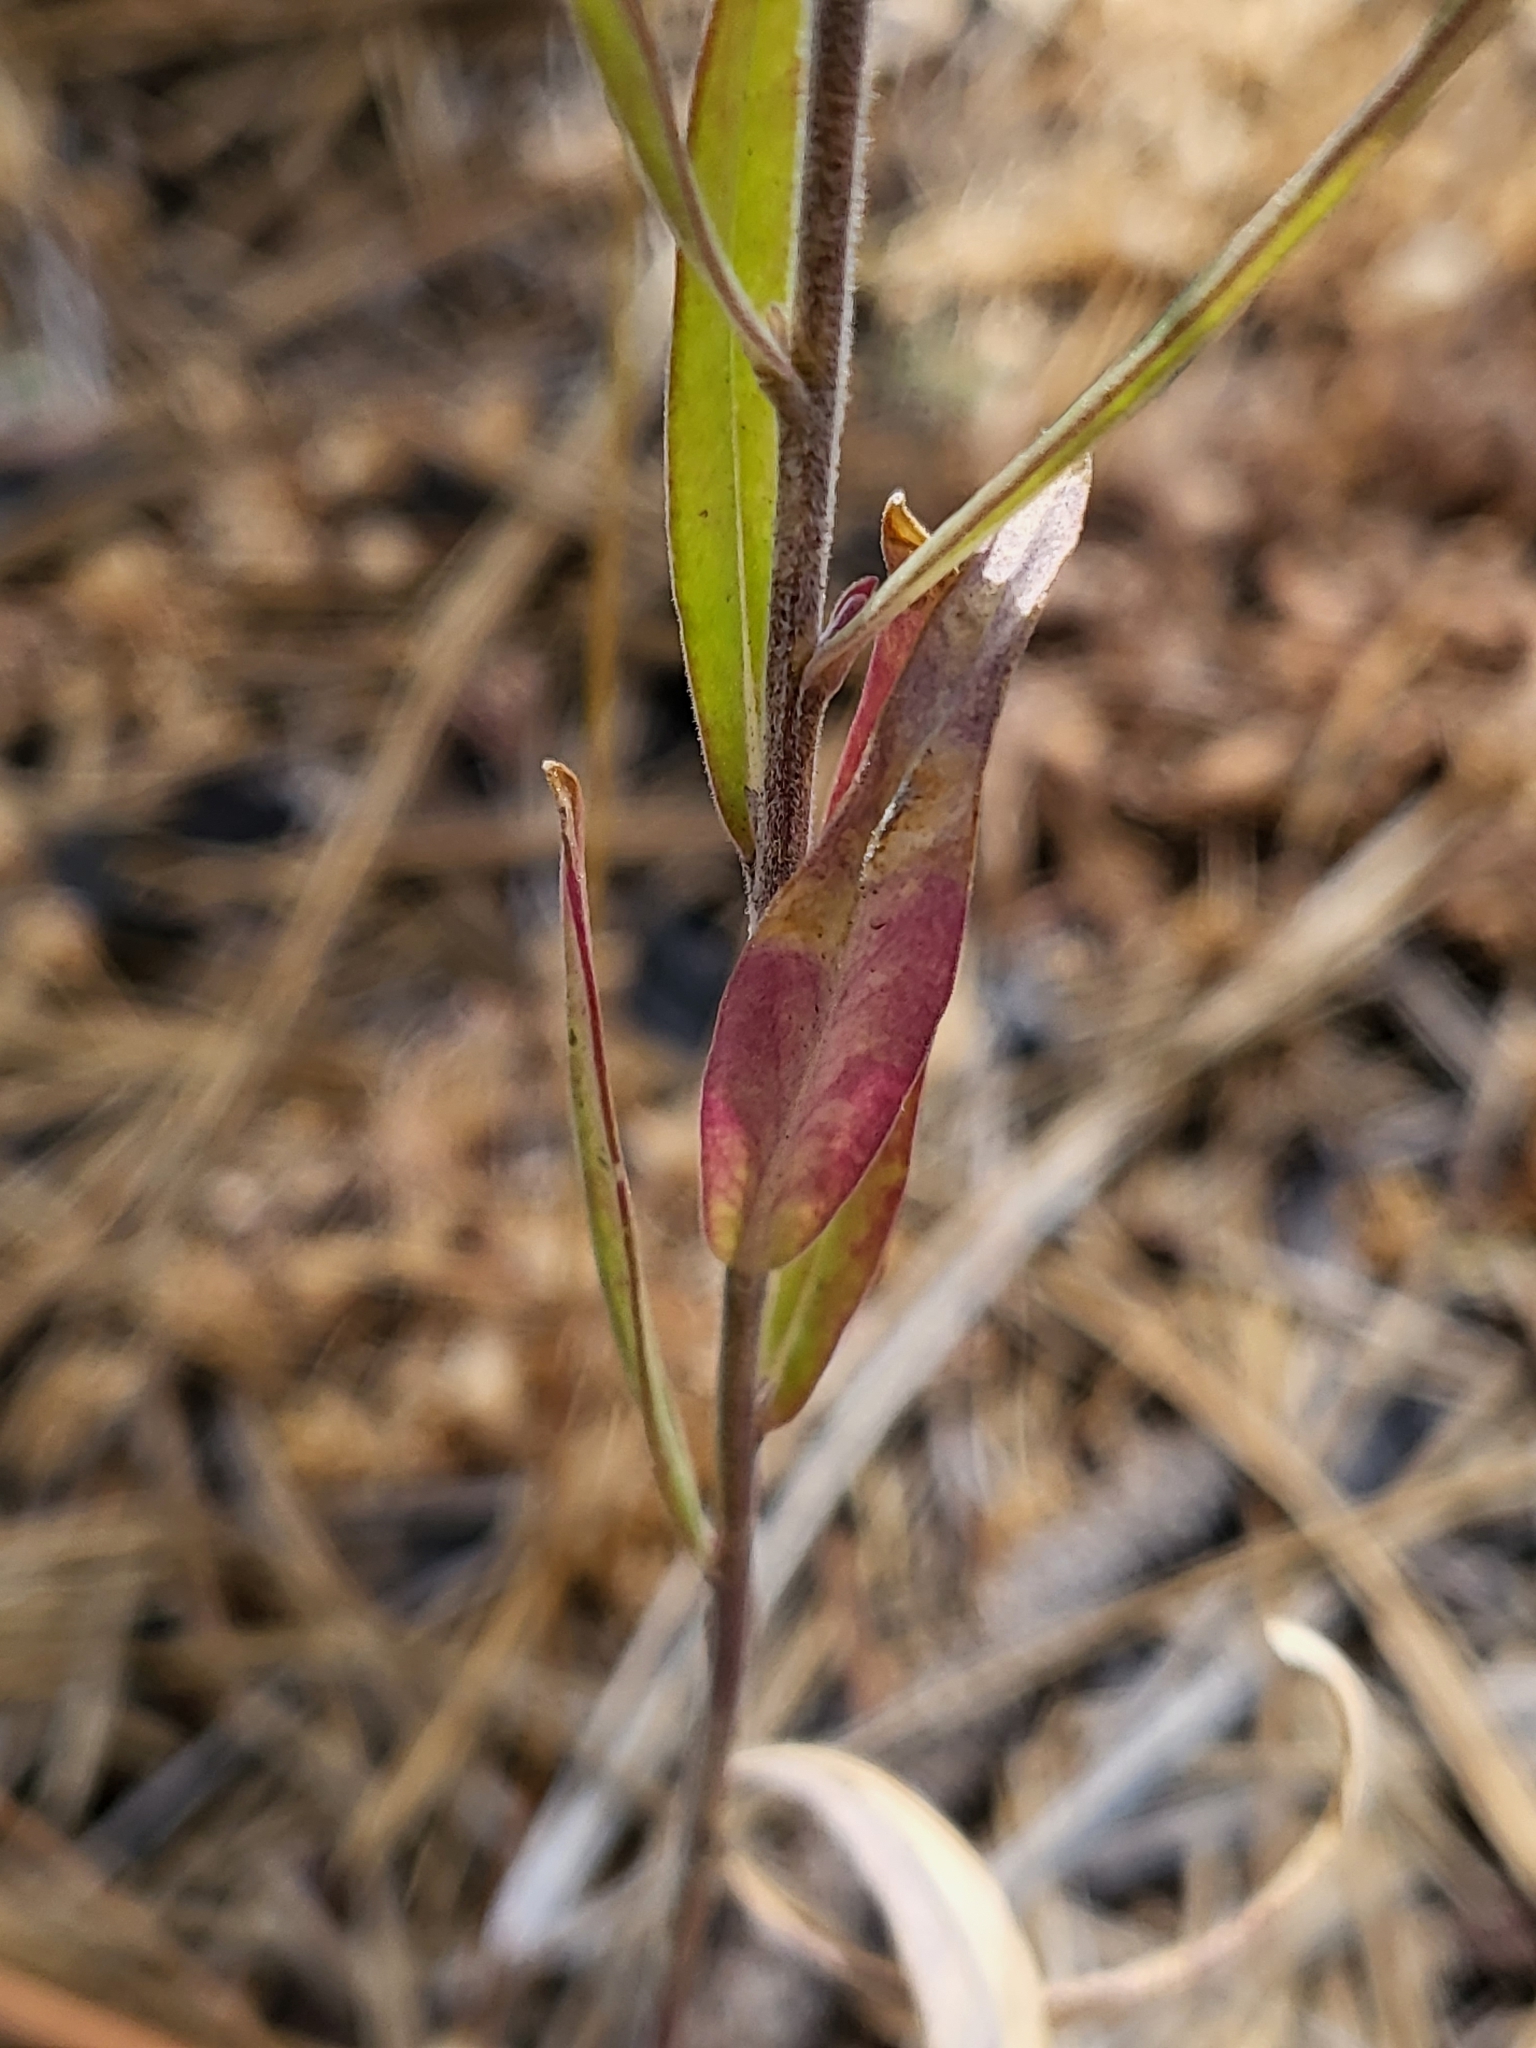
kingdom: Plantae
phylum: Tracheophyta
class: Magnoliopsida
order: Ericales
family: Polemoniaceae
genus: Collomia
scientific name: Collomia grandiflora
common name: California strawflower
